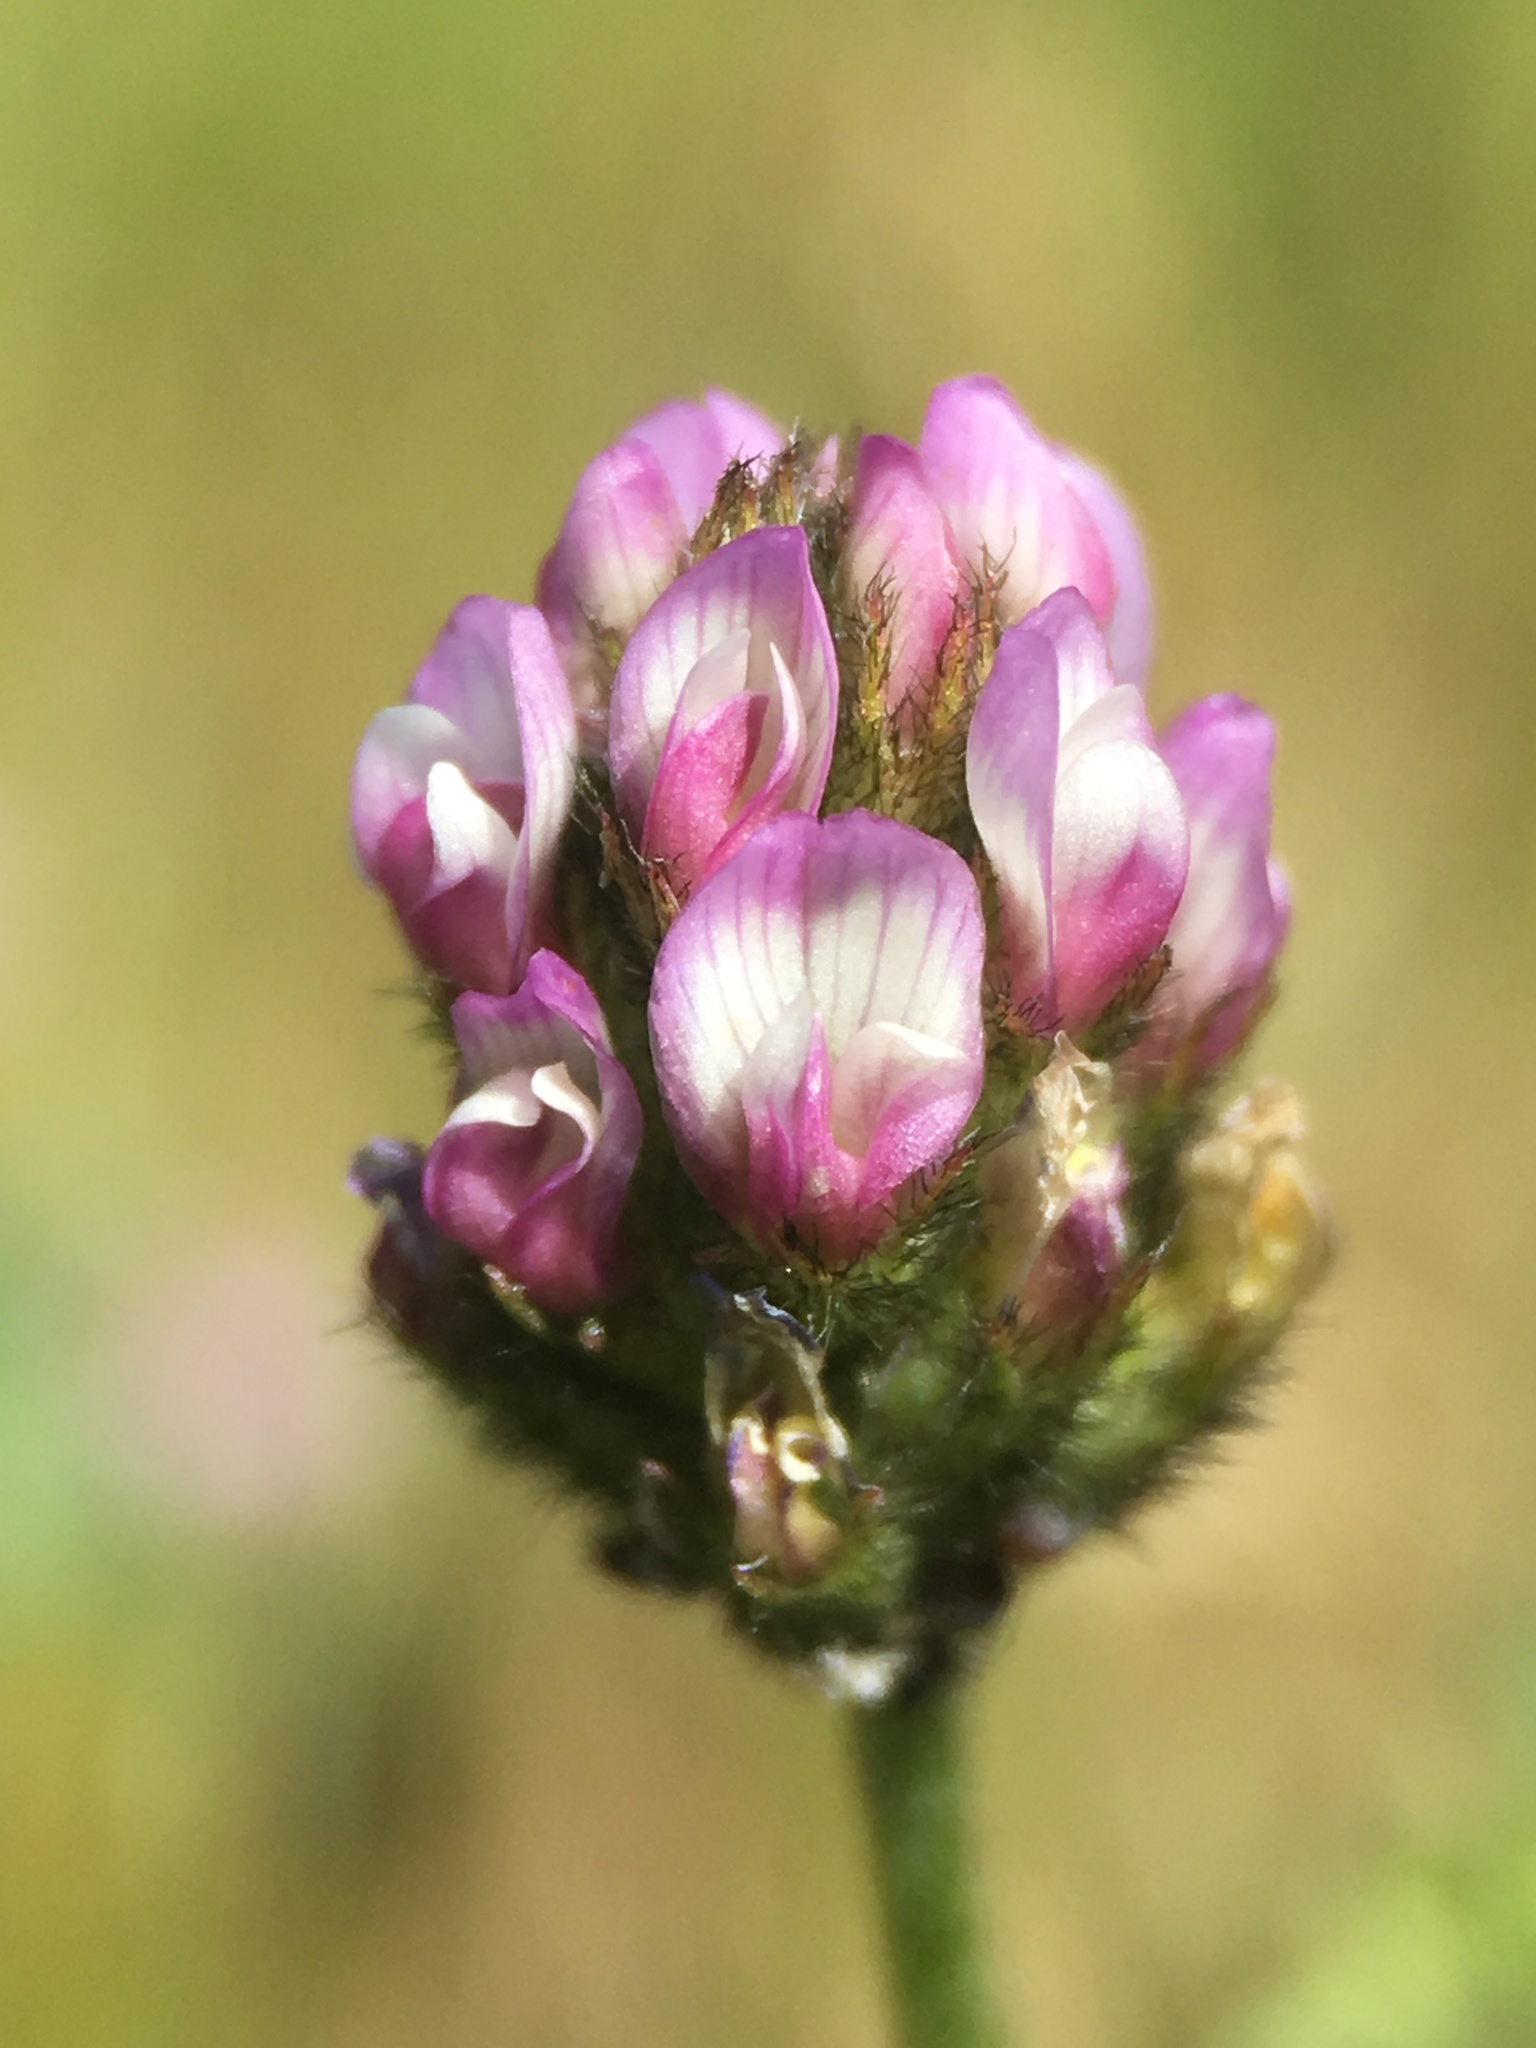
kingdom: Plantae
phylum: Tracheophyta
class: Magnoliopsida
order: Fabales
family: Fabaceae
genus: Astragalus
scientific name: Astragalus didymocarpus
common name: Dwarf white milkvetch
